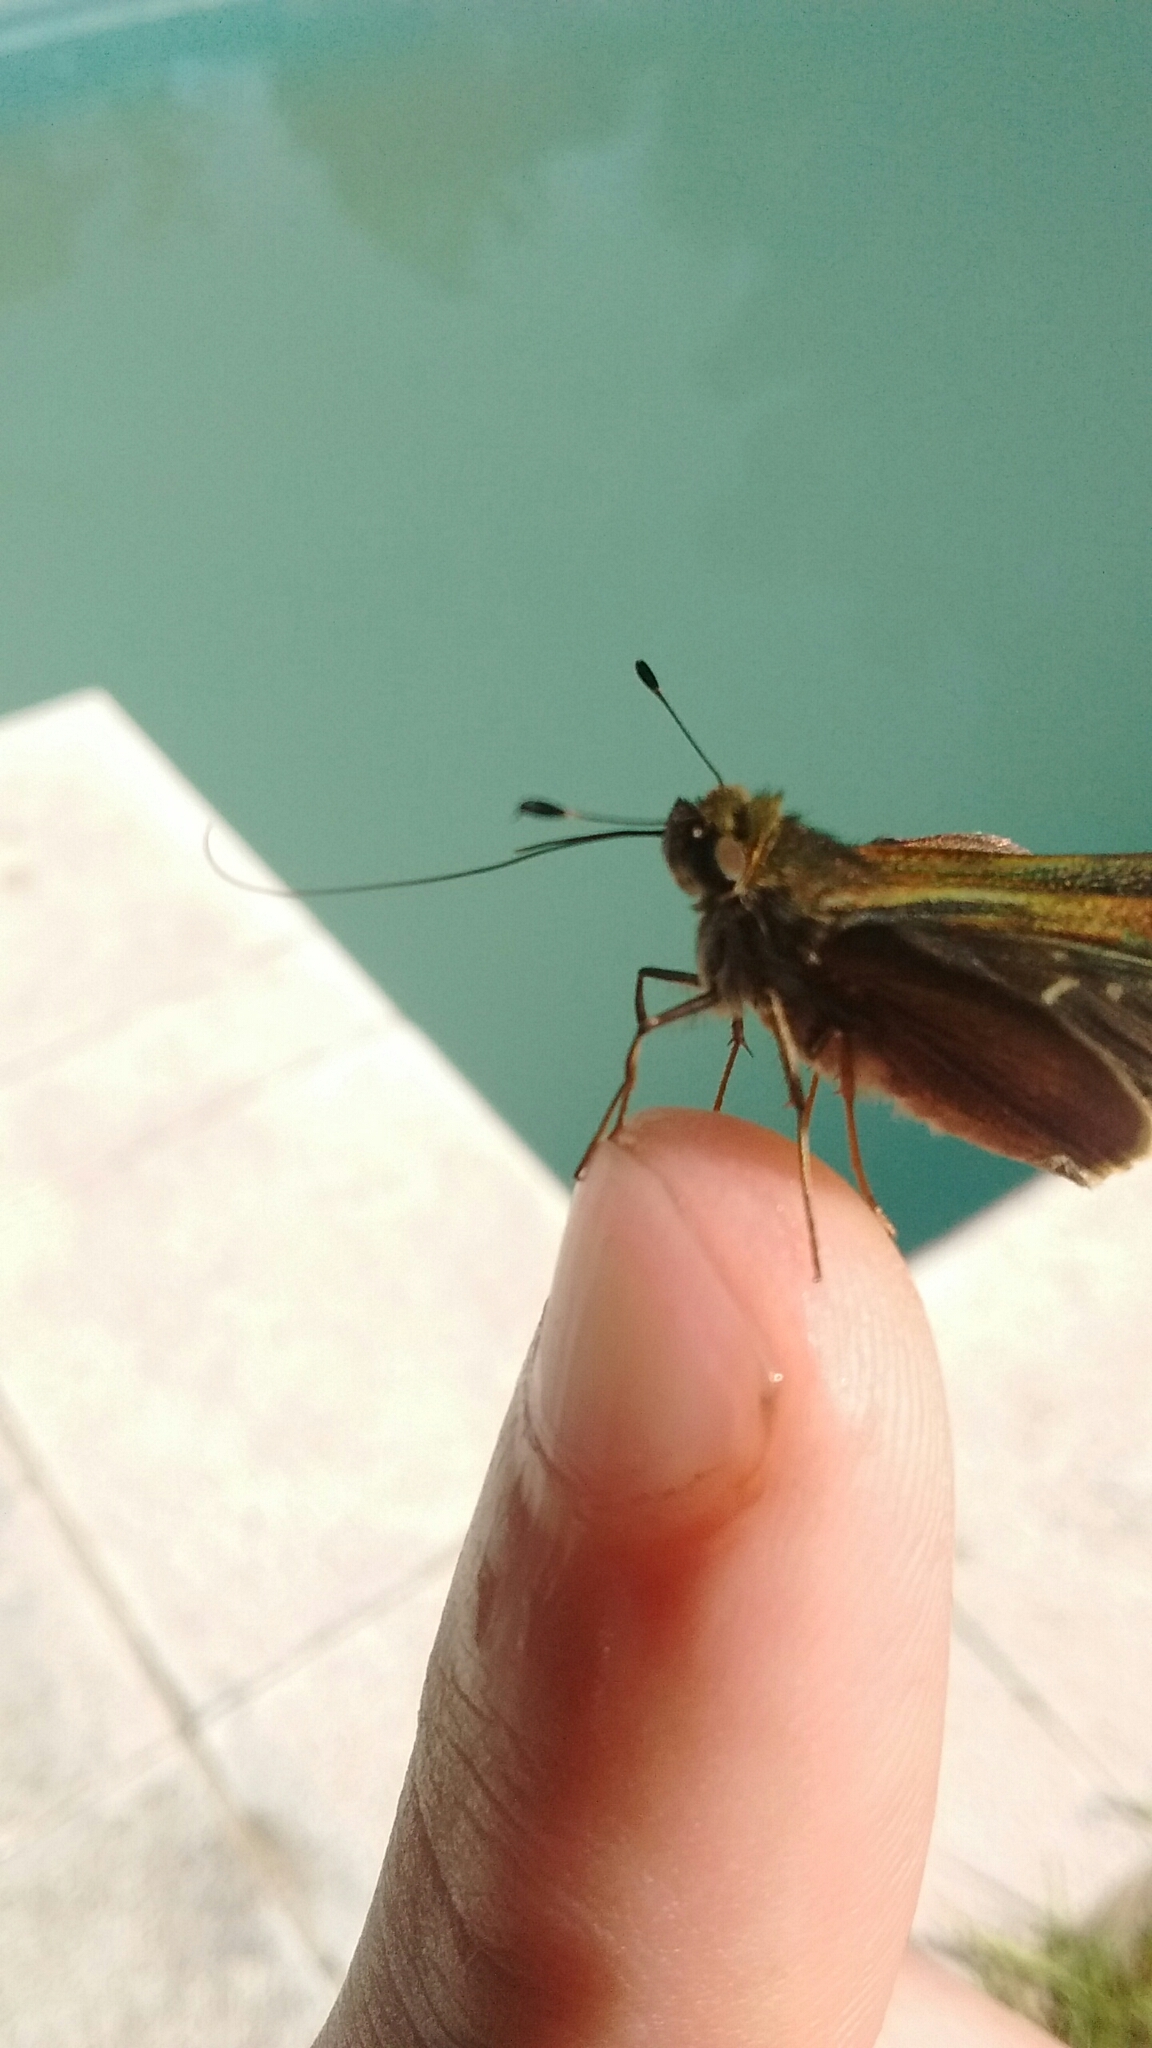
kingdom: Animalia
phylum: Arthropoda
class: Insecta
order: Lepidoptera
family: Hesperiidae
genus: Conga
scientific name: Conga chydaea
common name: Hidden-ray skipper
